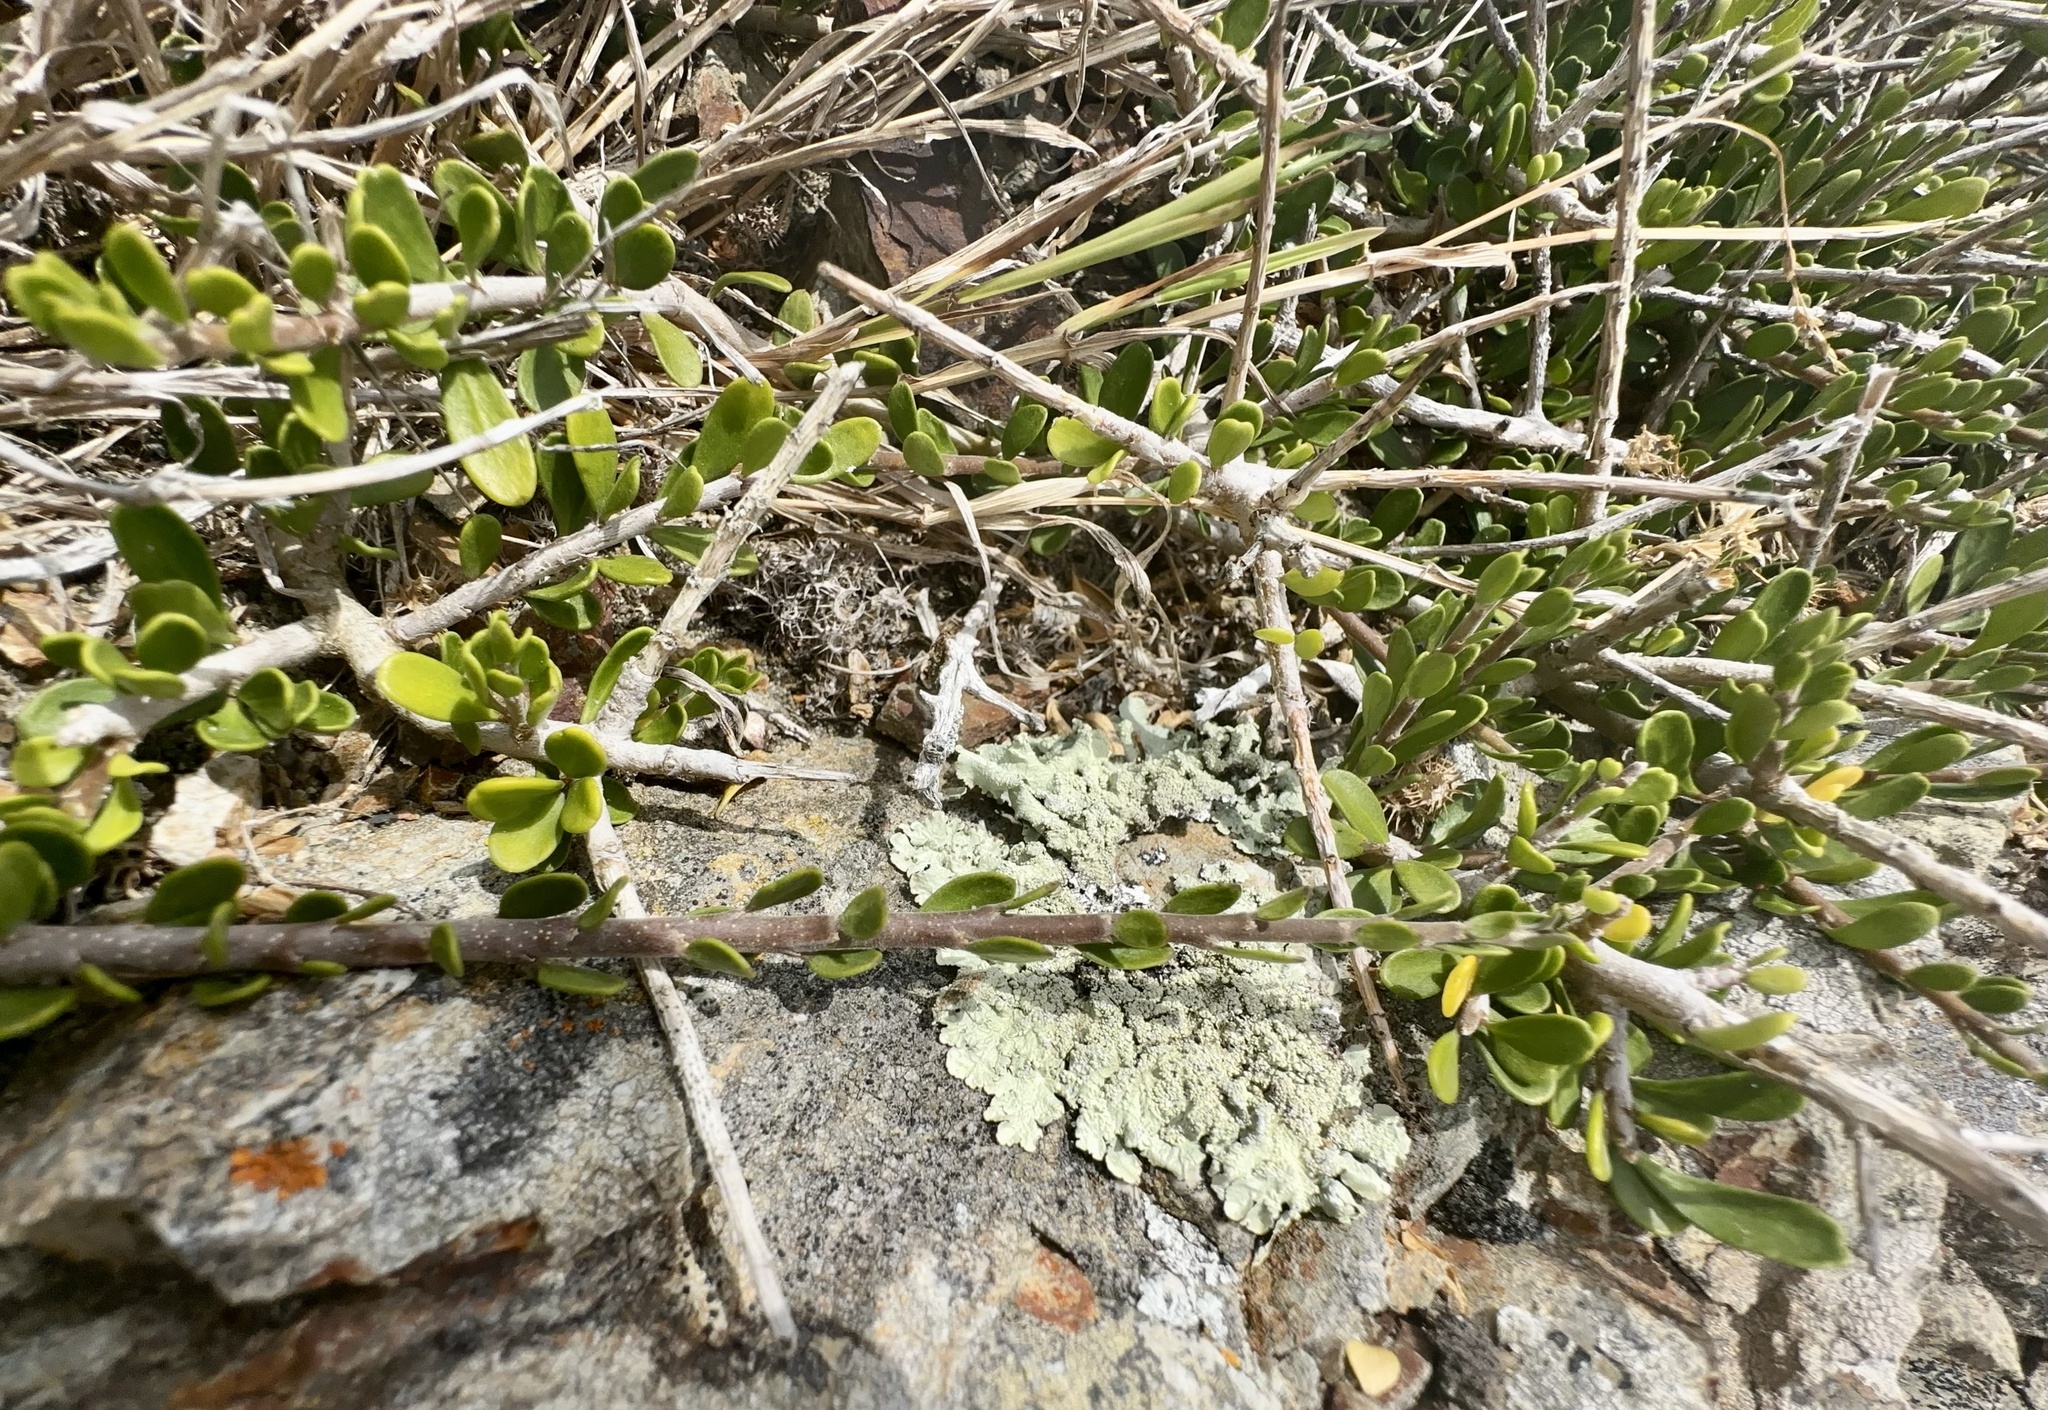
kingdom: Plantae
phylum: Tracheophyta
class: Magnoliopsida
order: Malpighiales
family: Violaceae
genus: Melicytus
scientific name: Melicytus crassifolius
